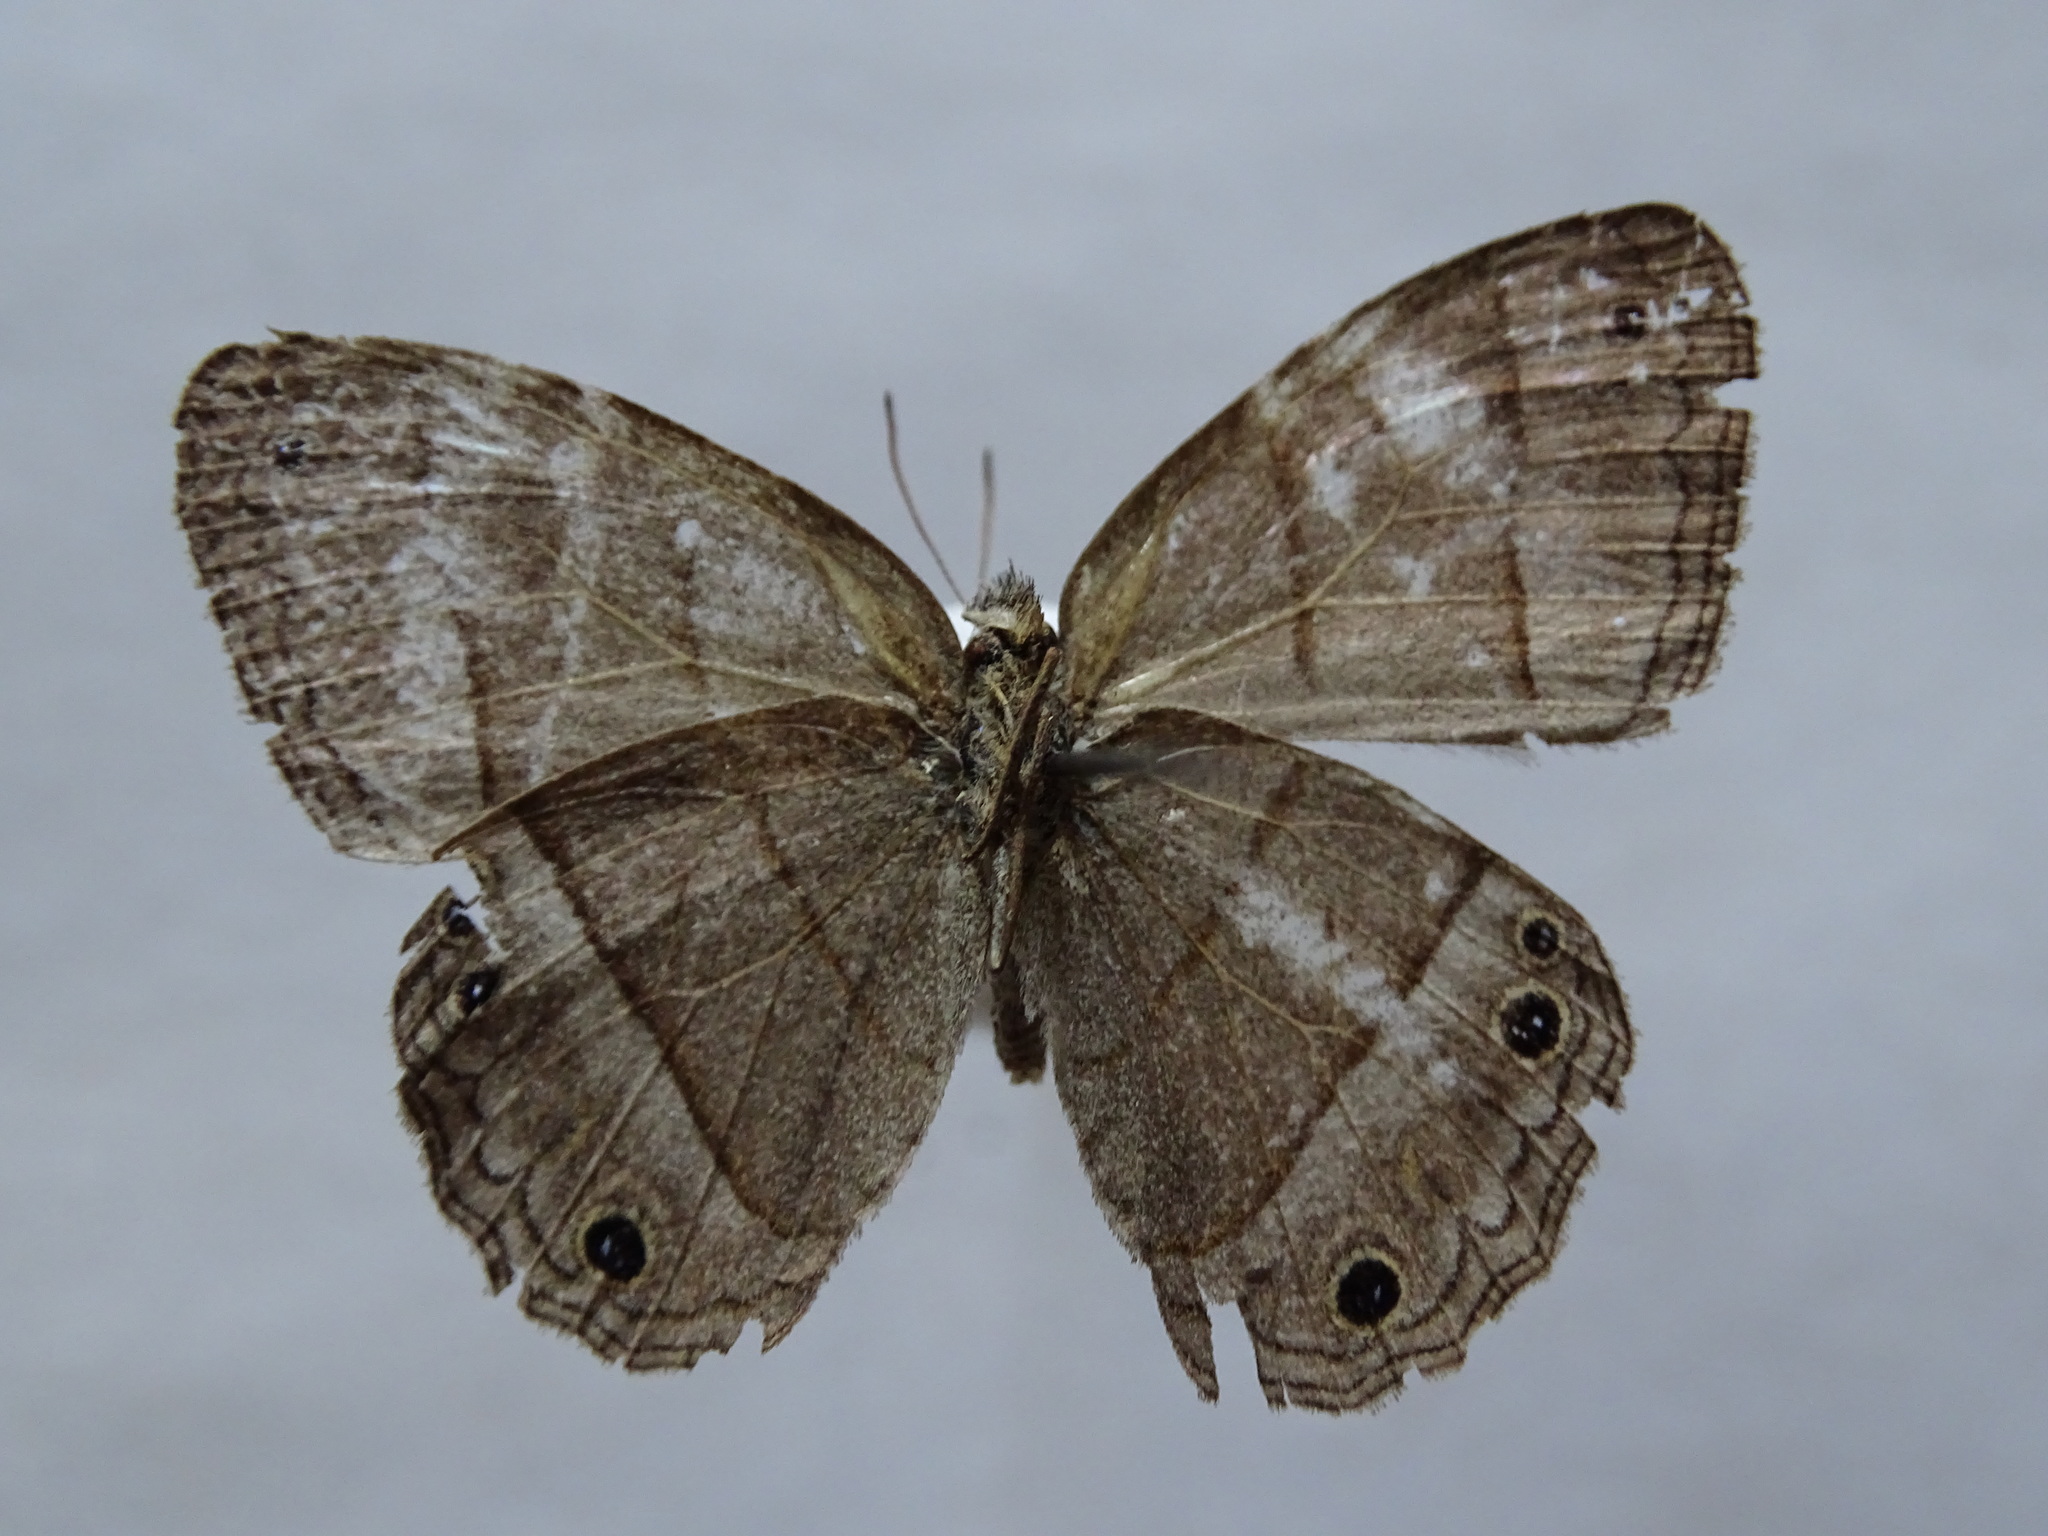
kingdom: Animalia
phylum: Arthropoda
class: Insecta
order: Lepidoptera
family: Nymphalidae
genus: Euptychia
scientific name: Euptychia Cissia pompilia
